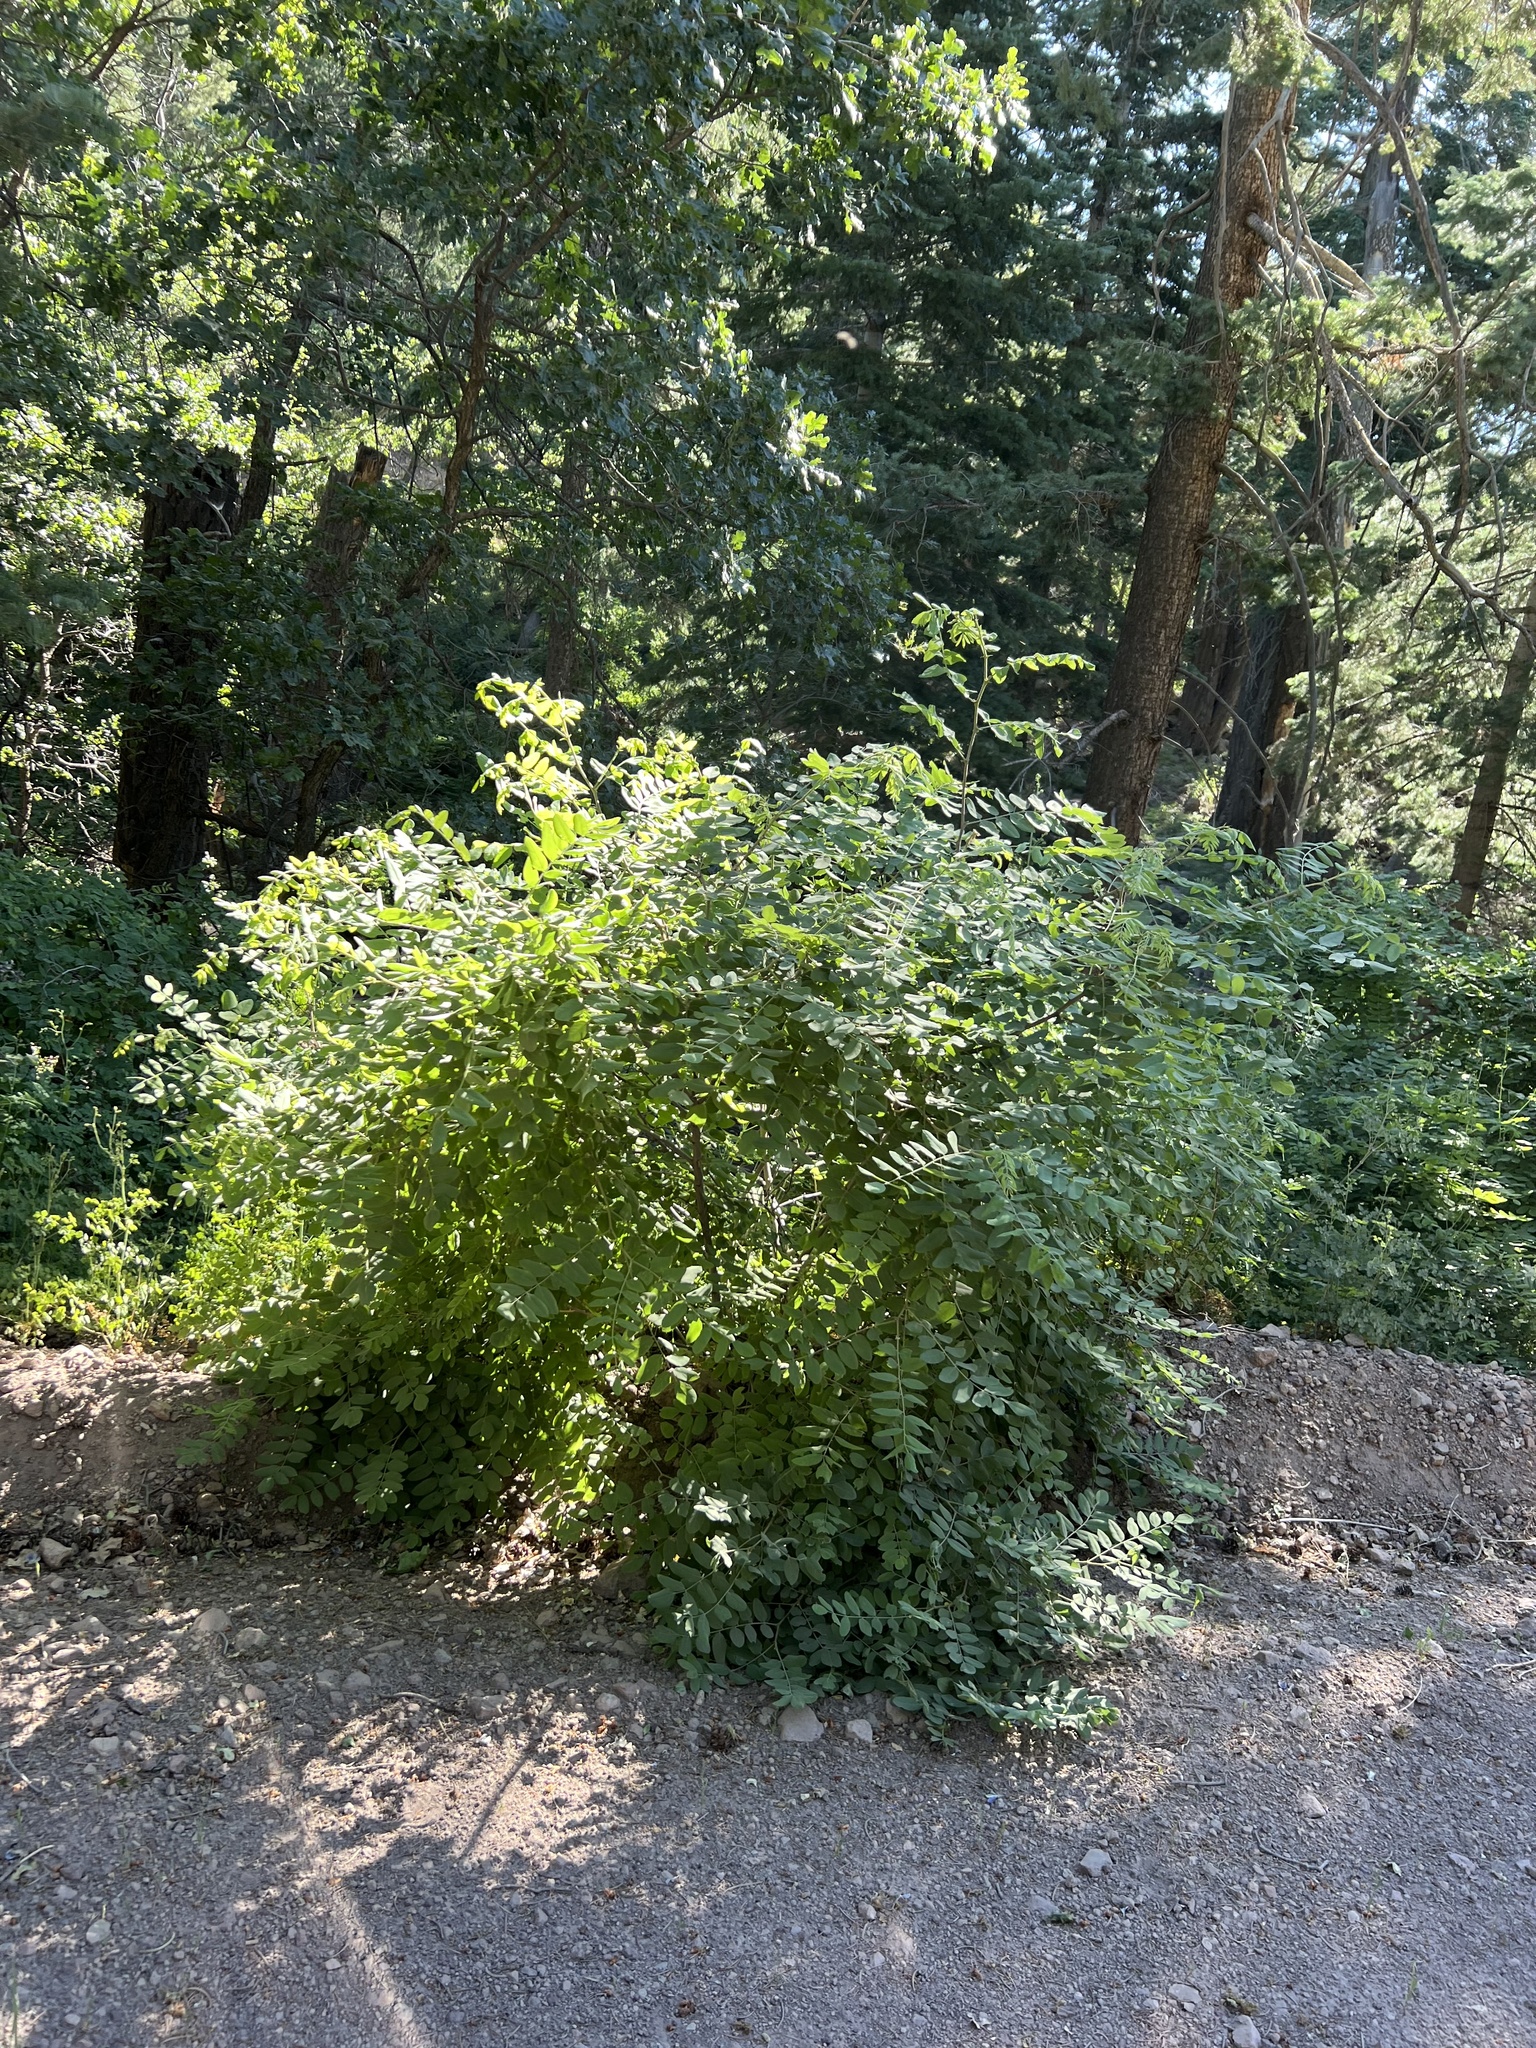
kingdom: Plantae
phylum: Tracheophyta
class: Magnoliopsida
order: Fabales
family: Fabaceae
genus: Robinia
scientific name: Robinia neomexicana
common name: New mexico locust
